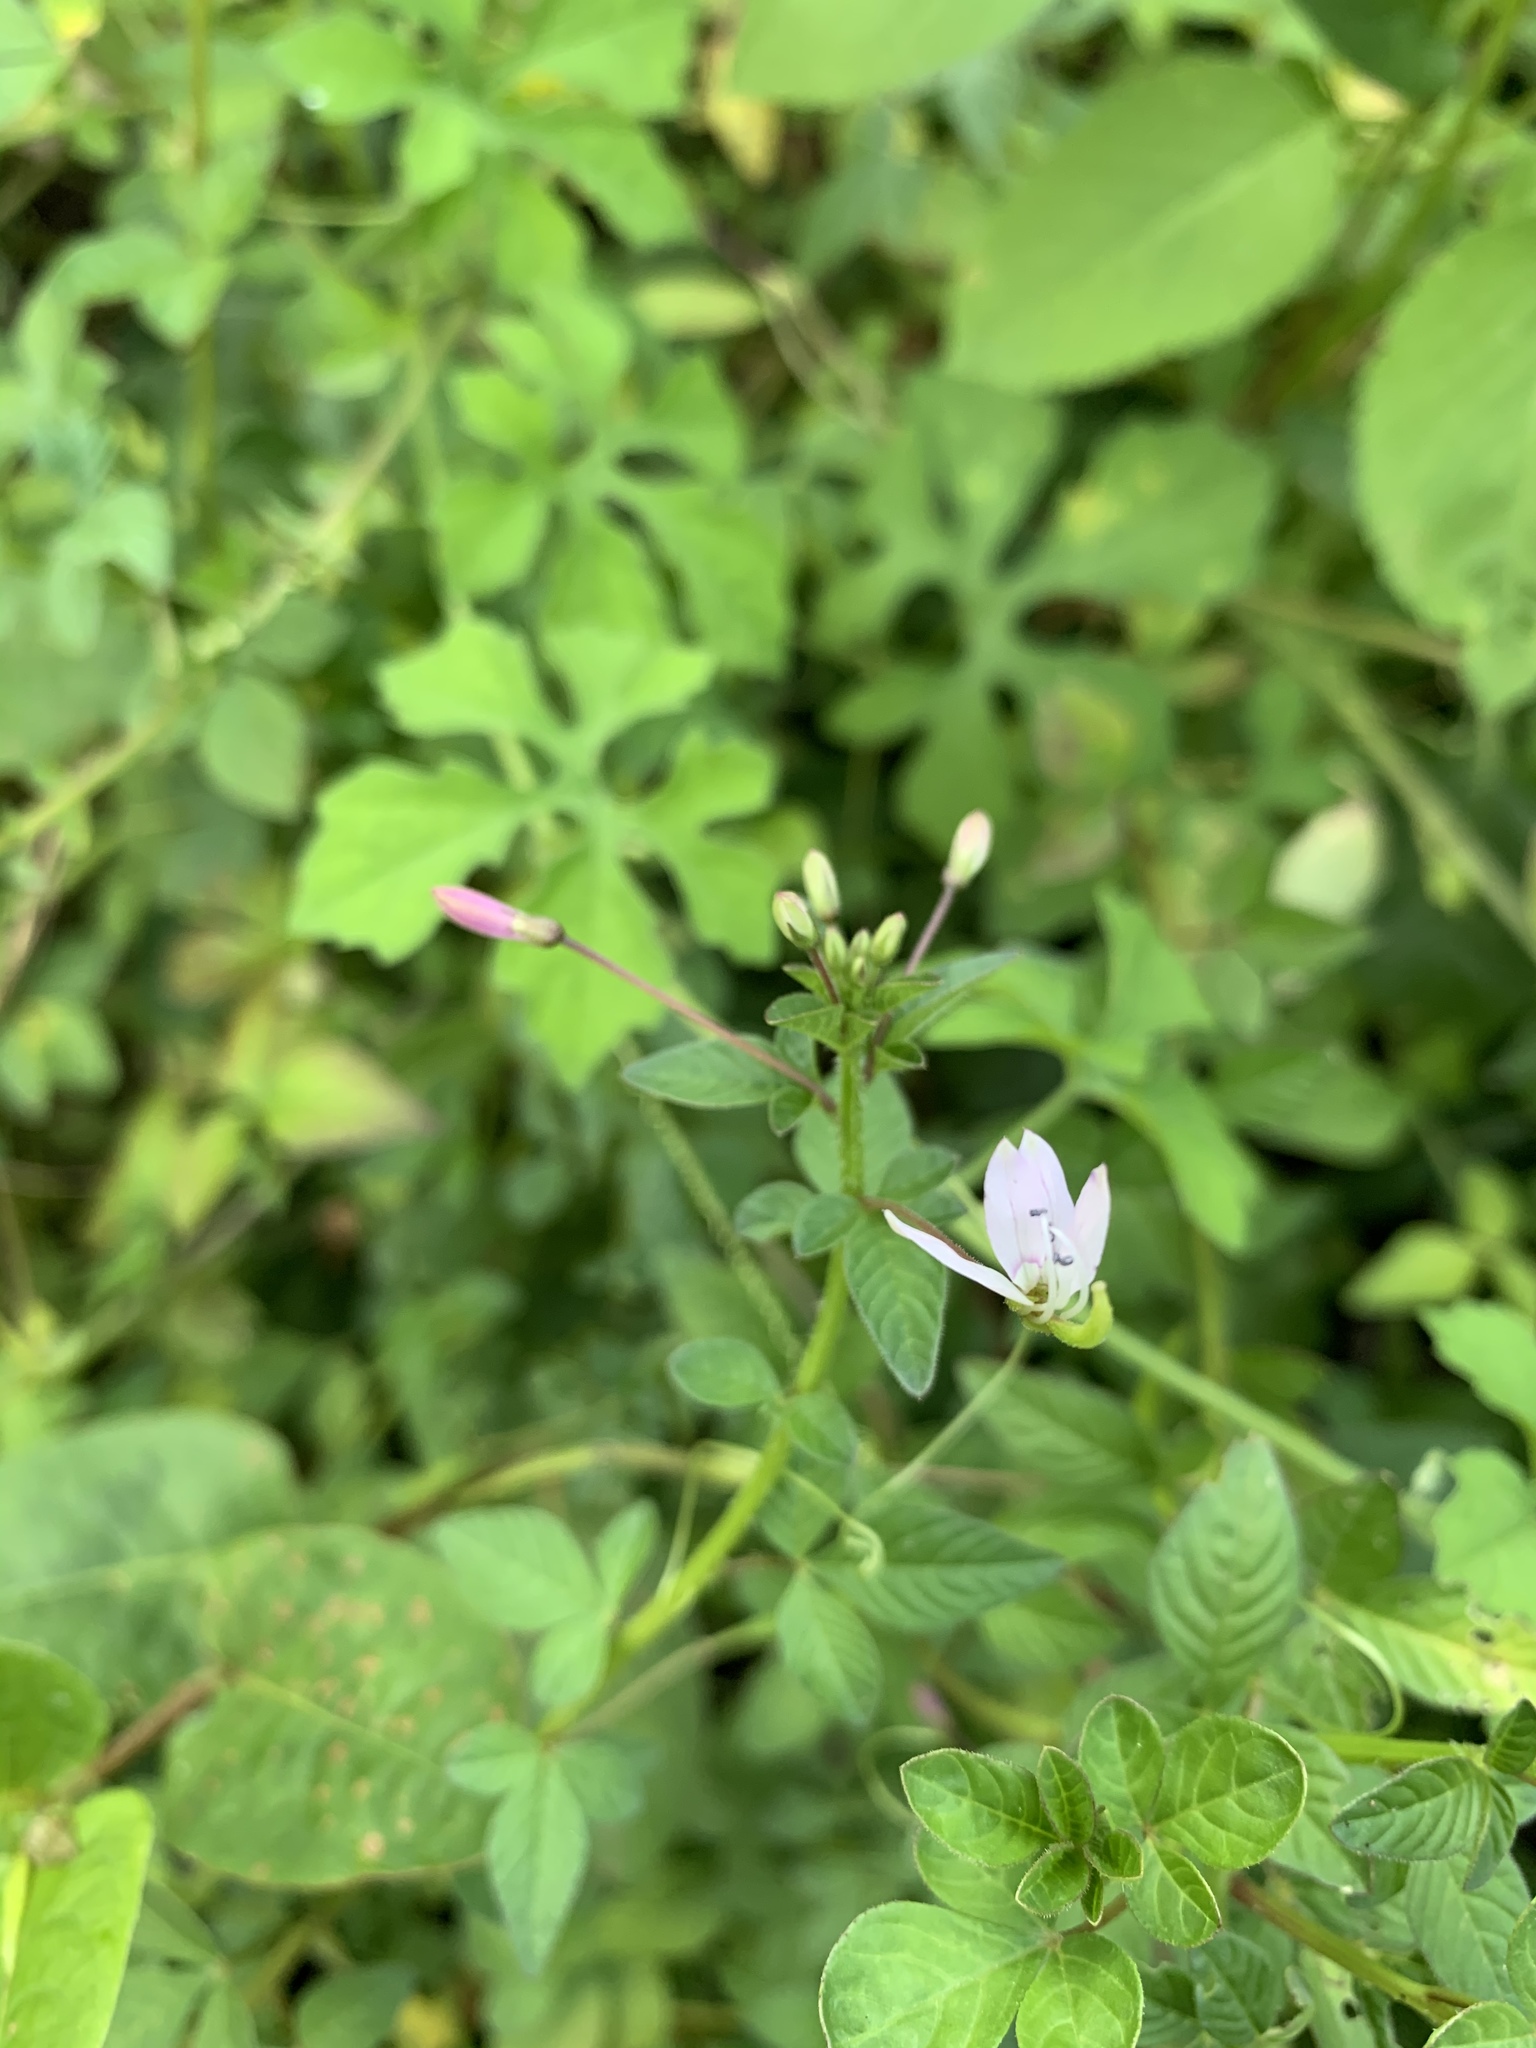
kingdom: Plantae
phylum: Tracheophyta
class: Magnoliopsida
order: Brassicales
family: Cleomaceae
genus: Sieruela
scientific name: Sieruela rutidosperma
